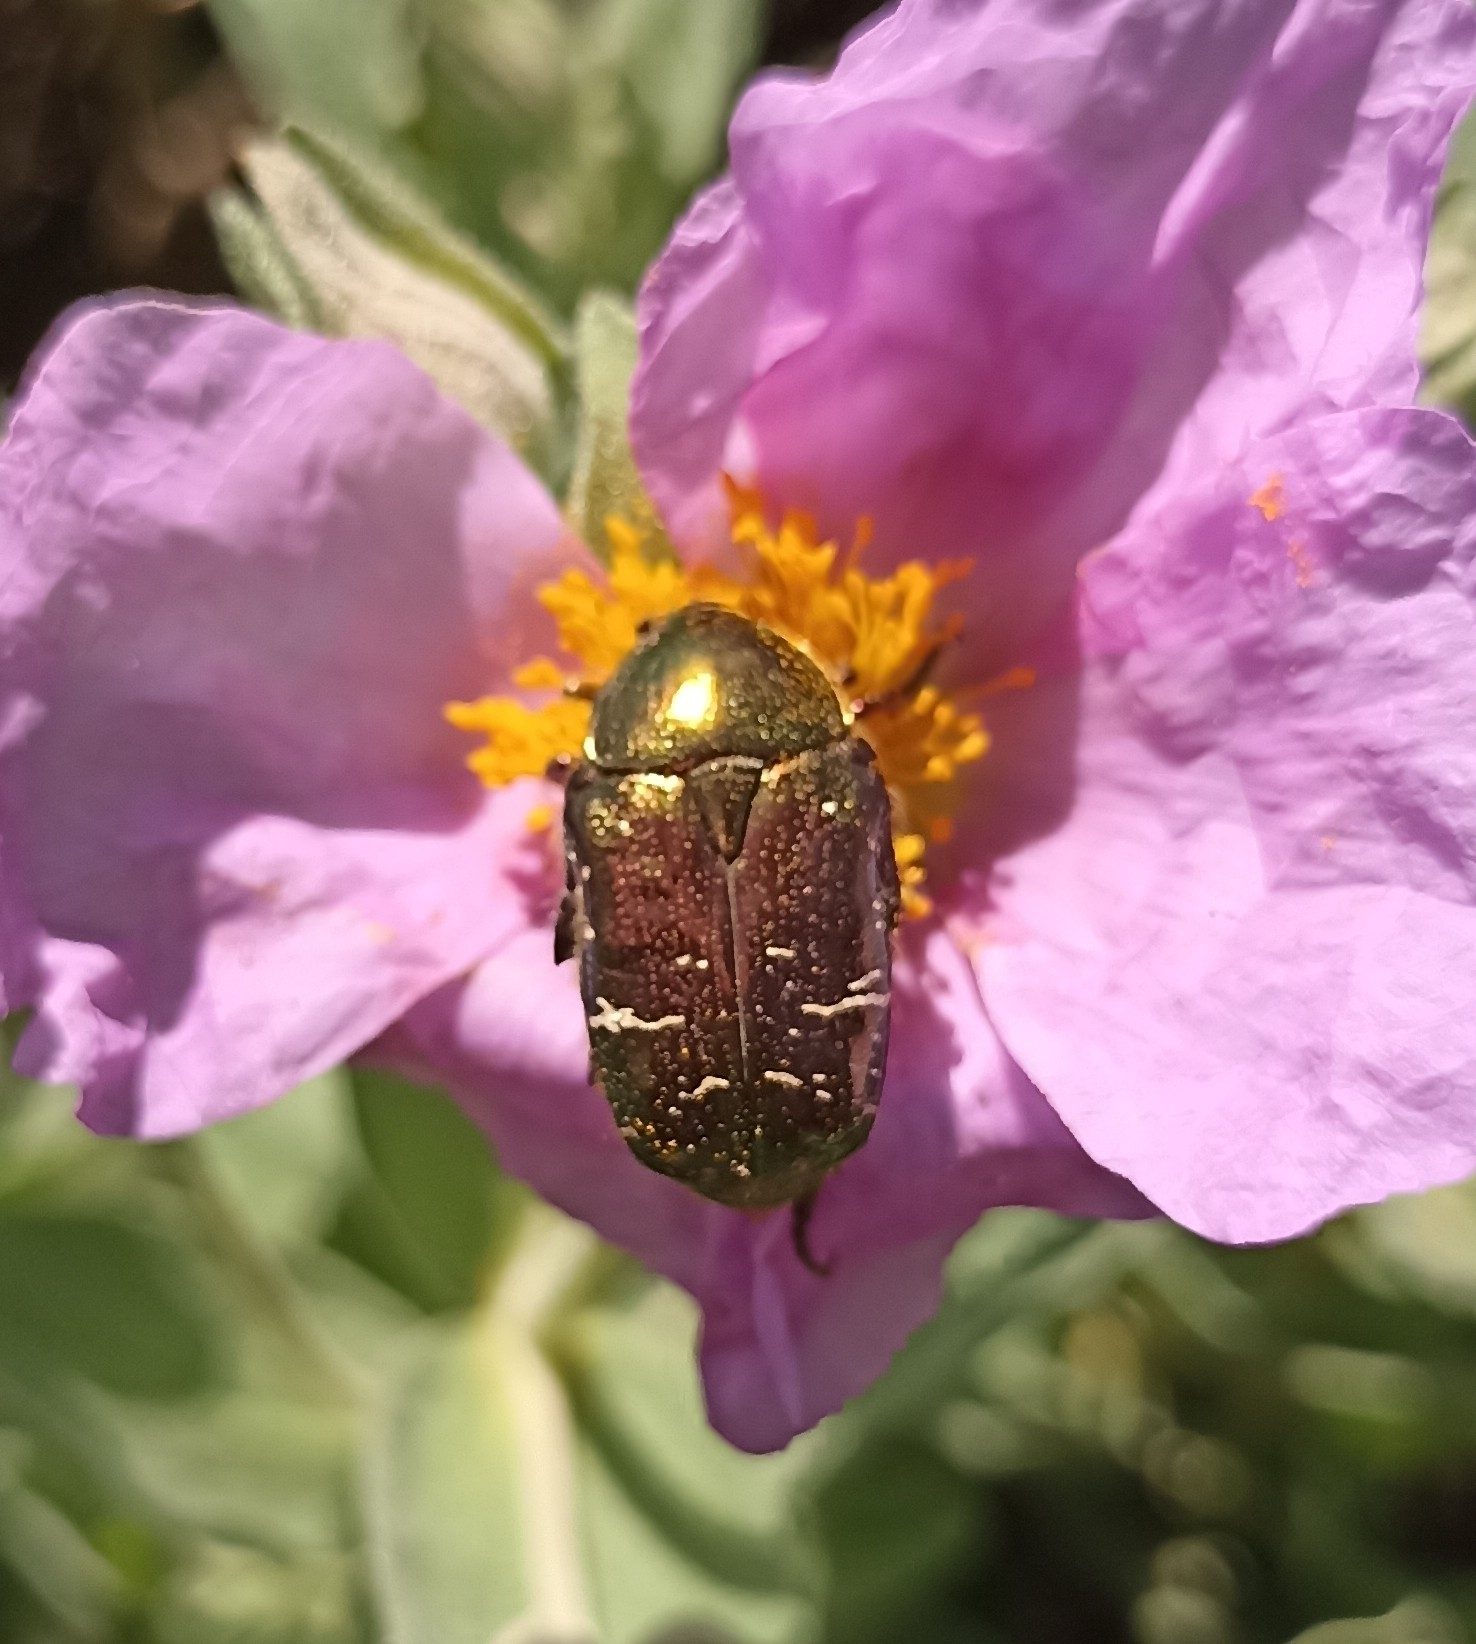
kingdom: Animalia
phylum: Arthropoda
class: Insecta
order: Coleoptera
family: Scarabaeidae
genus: Cetonia
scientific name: Cetonia aurata
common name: Rose chafer
